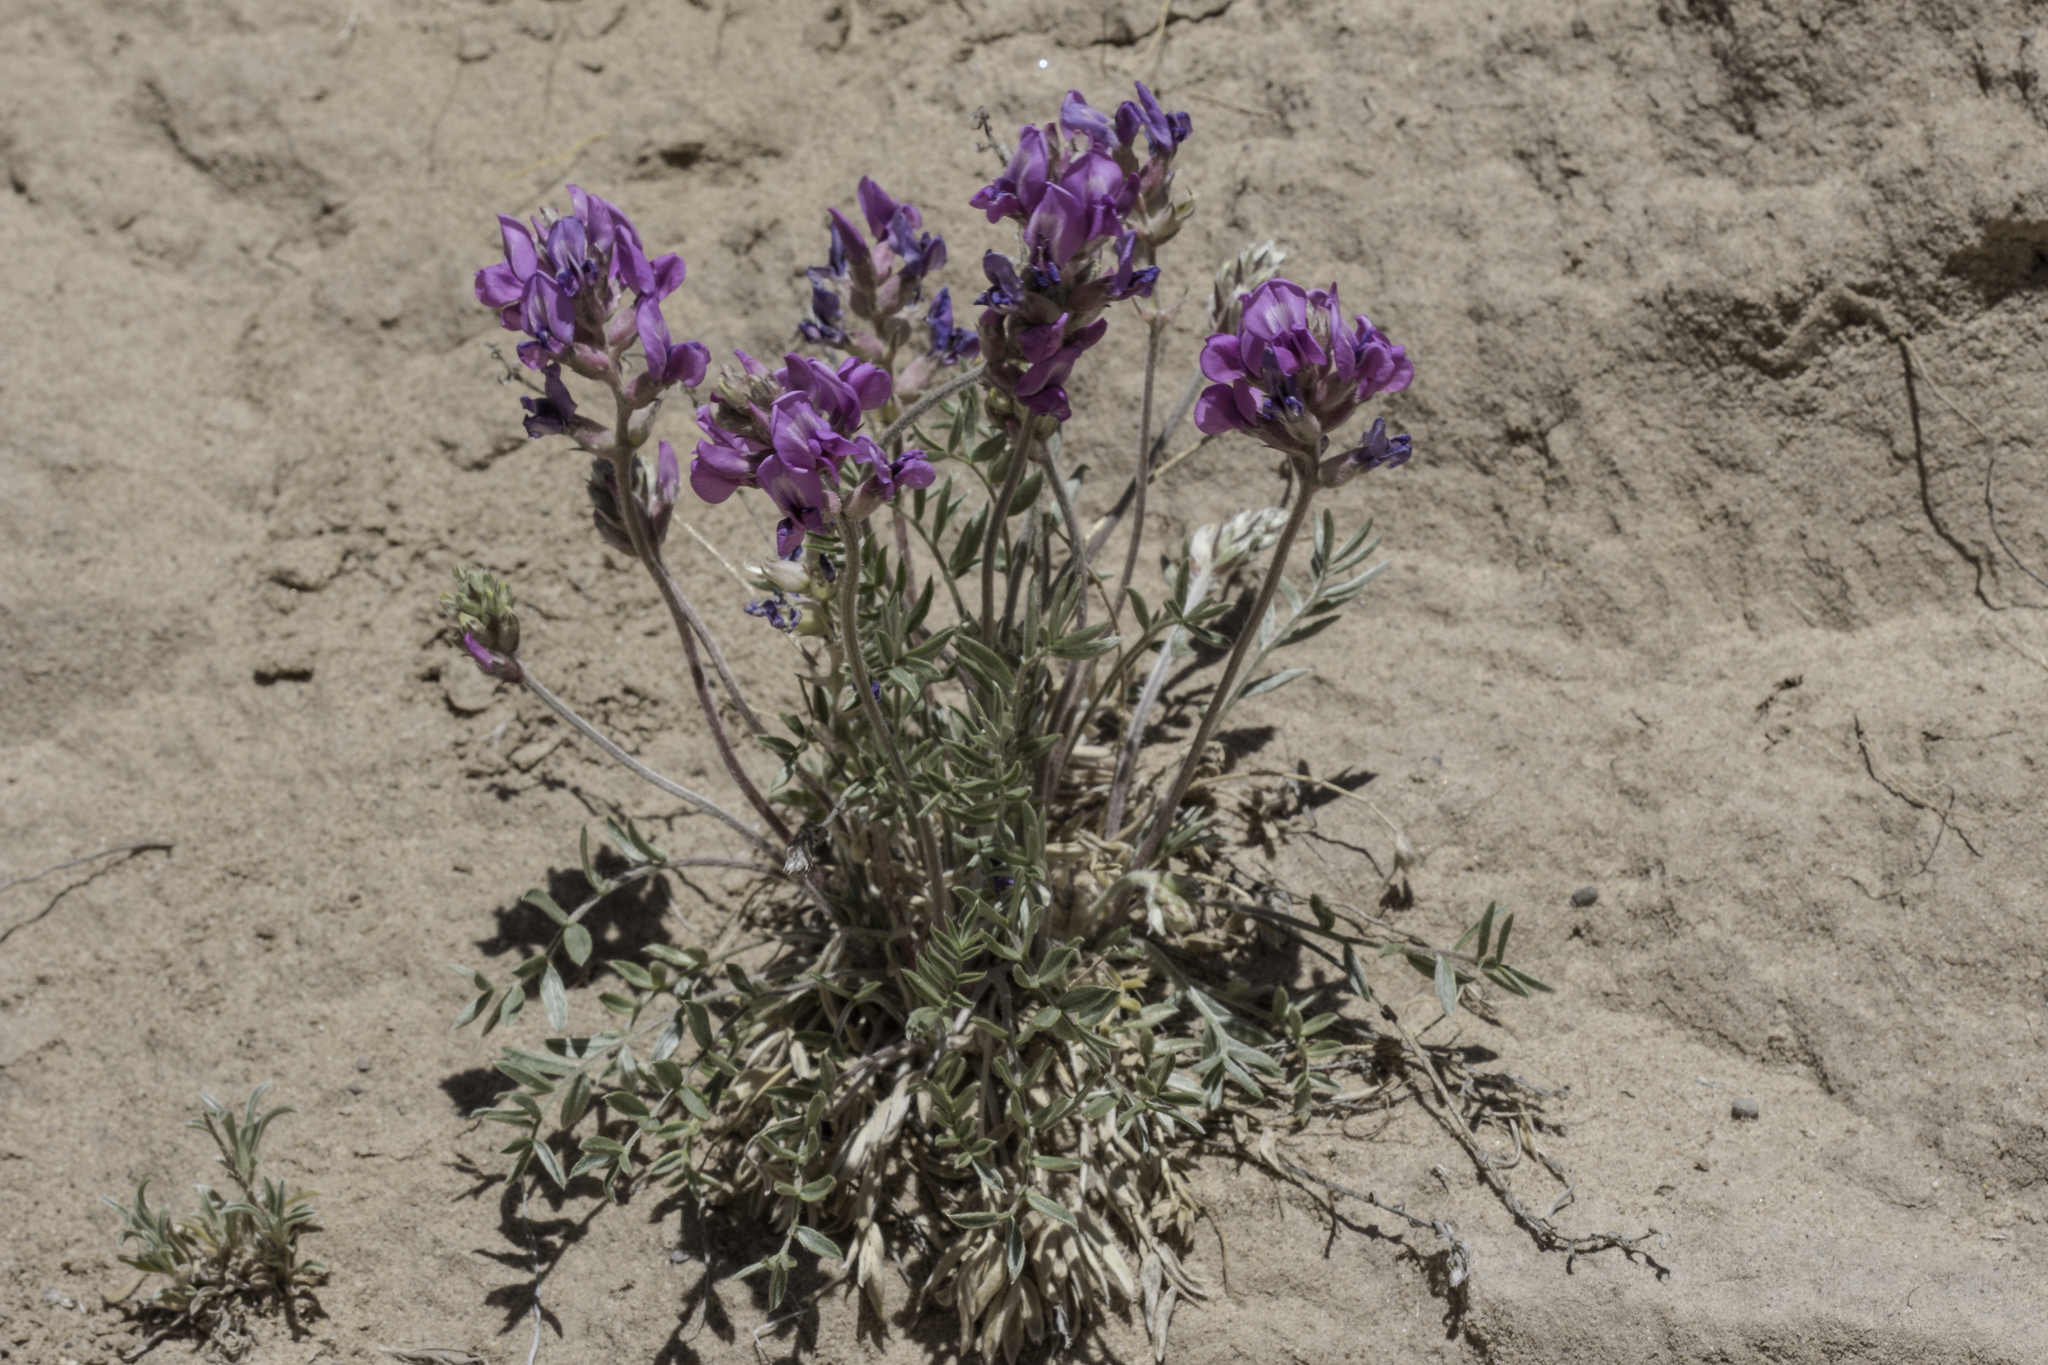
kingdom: Plantae
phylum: Tracheophyta
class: Magnoliopsida
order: Fabales
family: Fabaceae
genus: Oxytropis
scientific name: Oxytropis lambertii
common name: Purple locoweed
